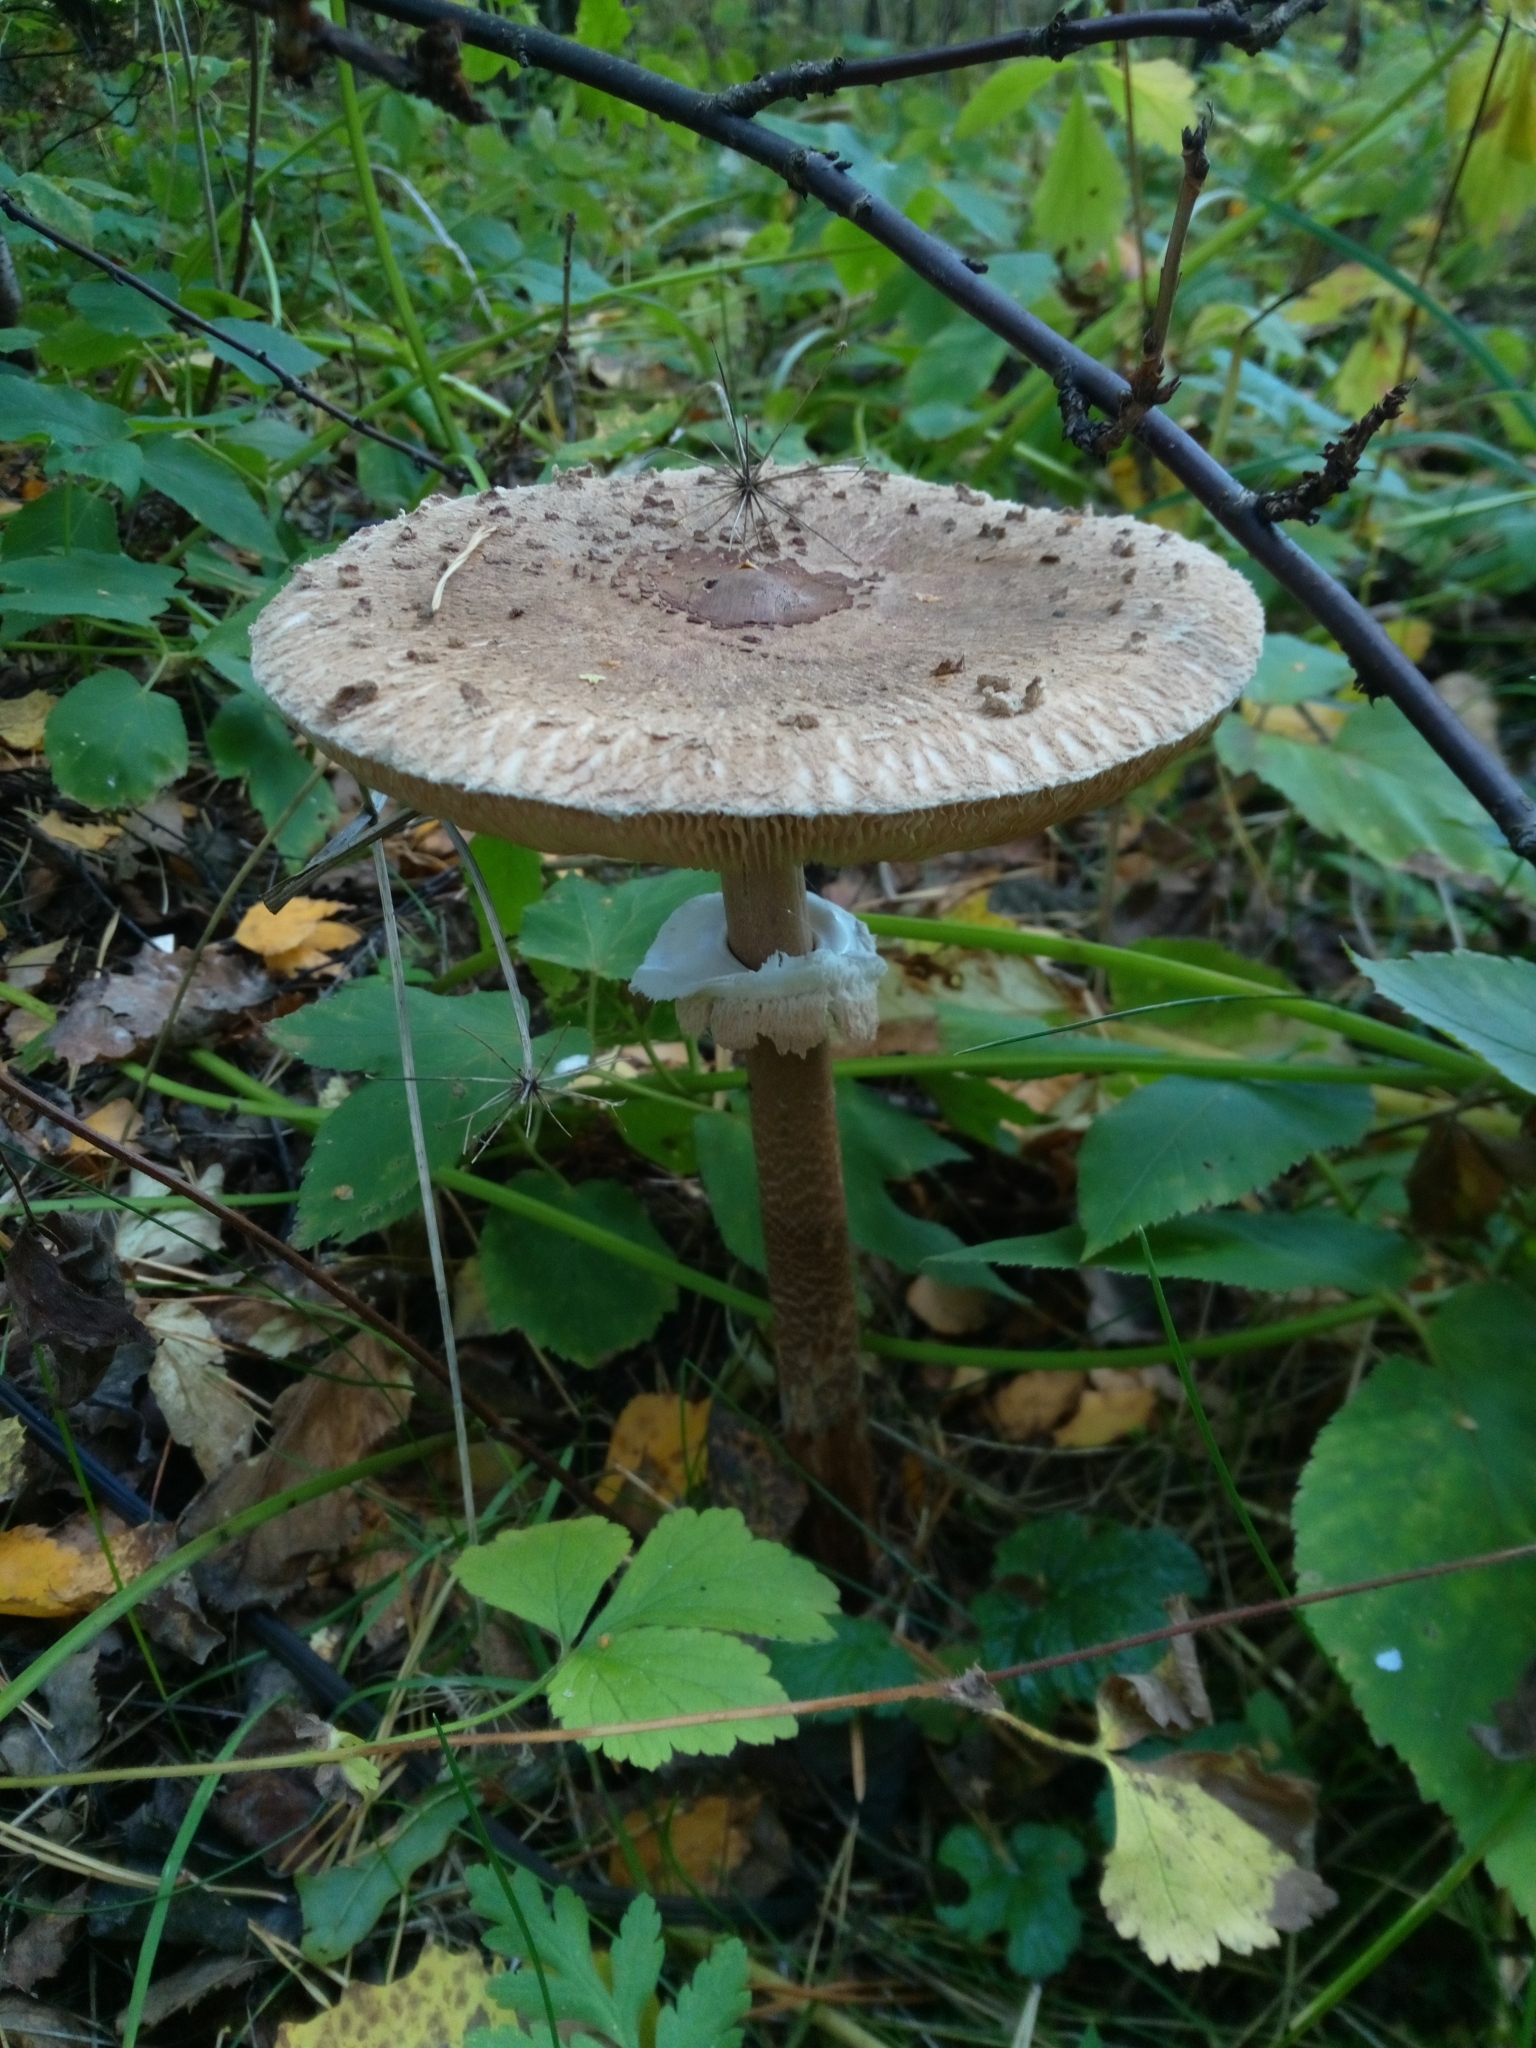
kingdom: Fungi
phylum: Basidiomycota
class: Agaricomycetes
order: Agaricales
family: Agaricaceae
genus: Macrolepiota
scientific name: Macrolepiota procera
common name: Parasol
